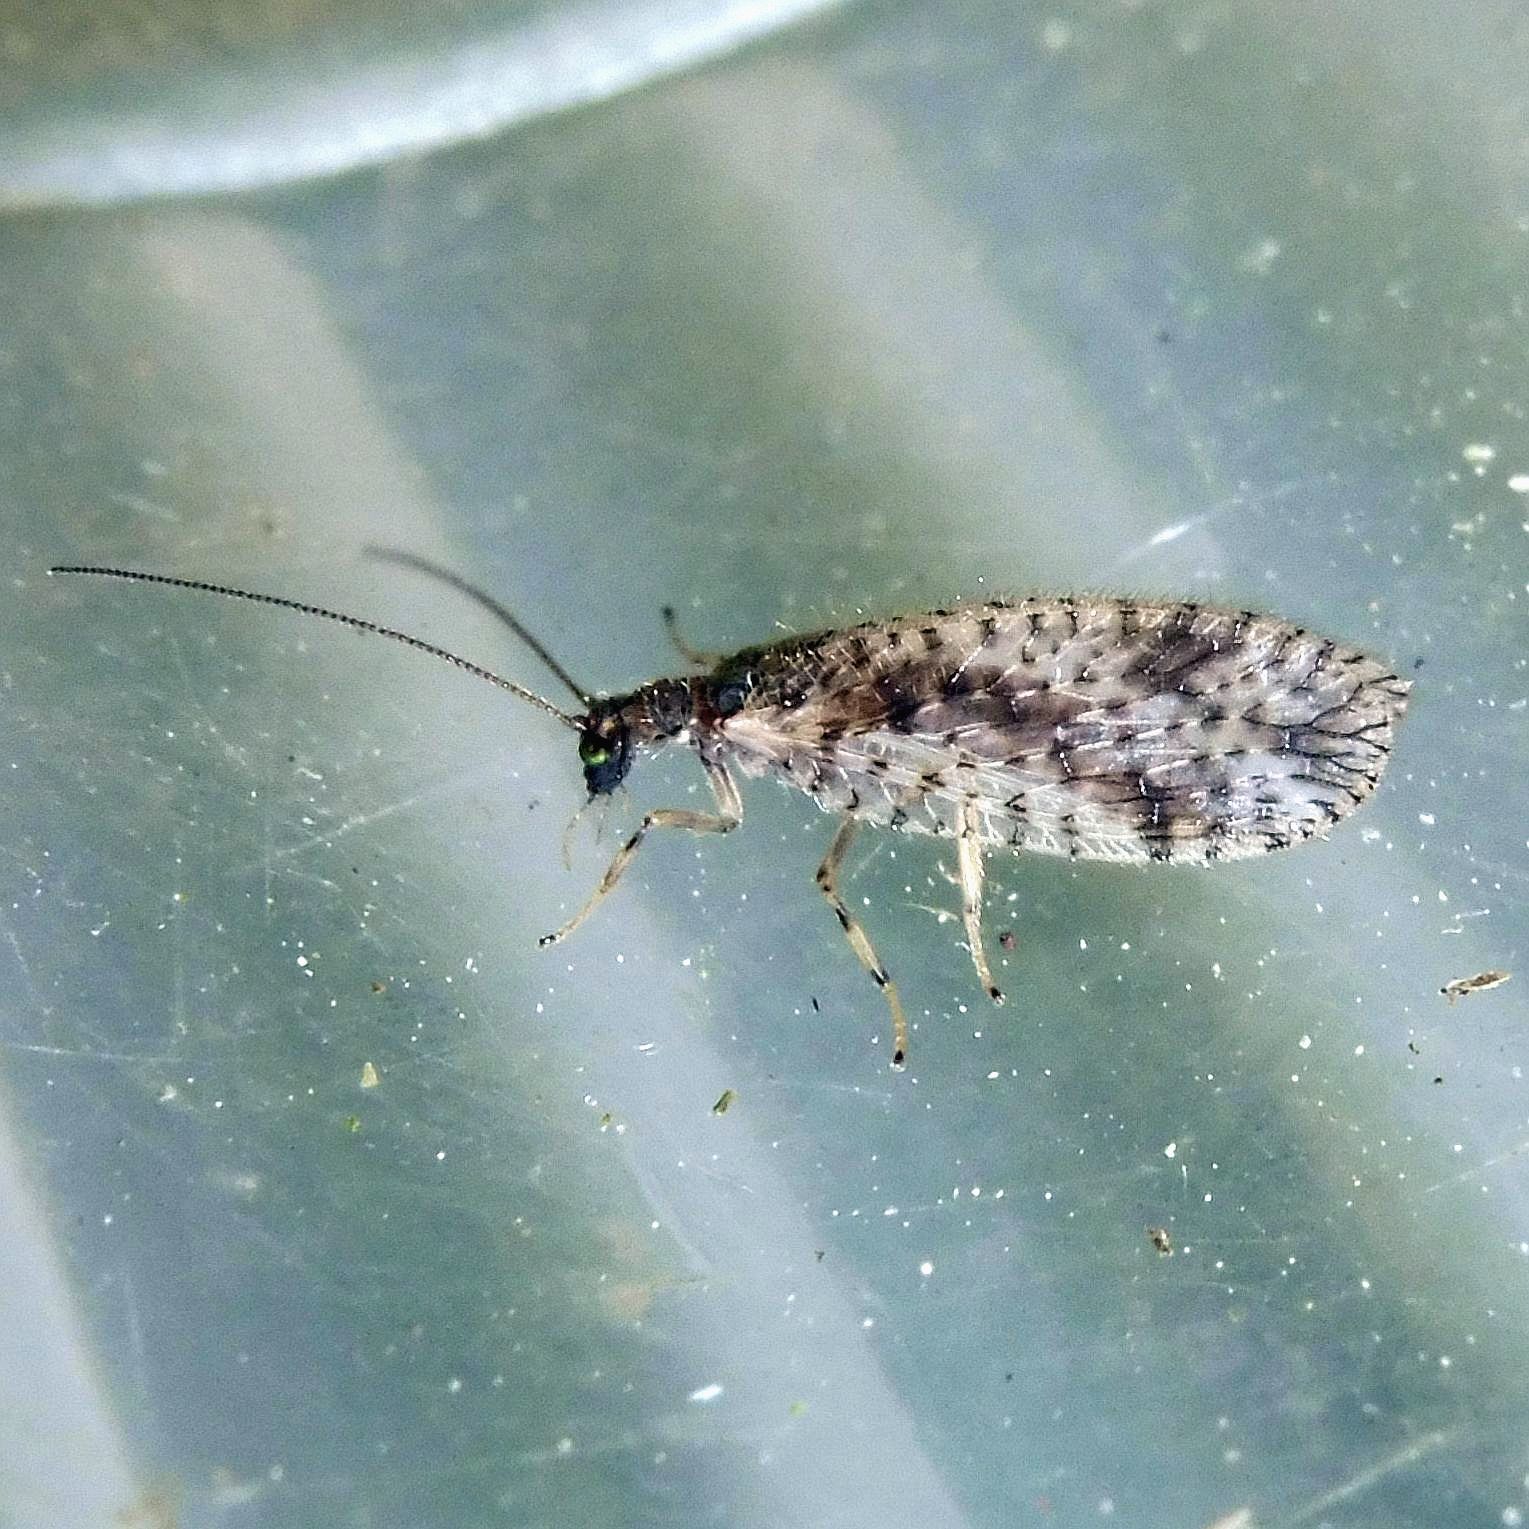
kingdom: Animalia
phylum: Arthropoda
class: Insecta
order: Neuroptera
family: Hemerobiidae
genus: Micromus
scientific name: Micromus variegatus
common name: Brown lacewing
